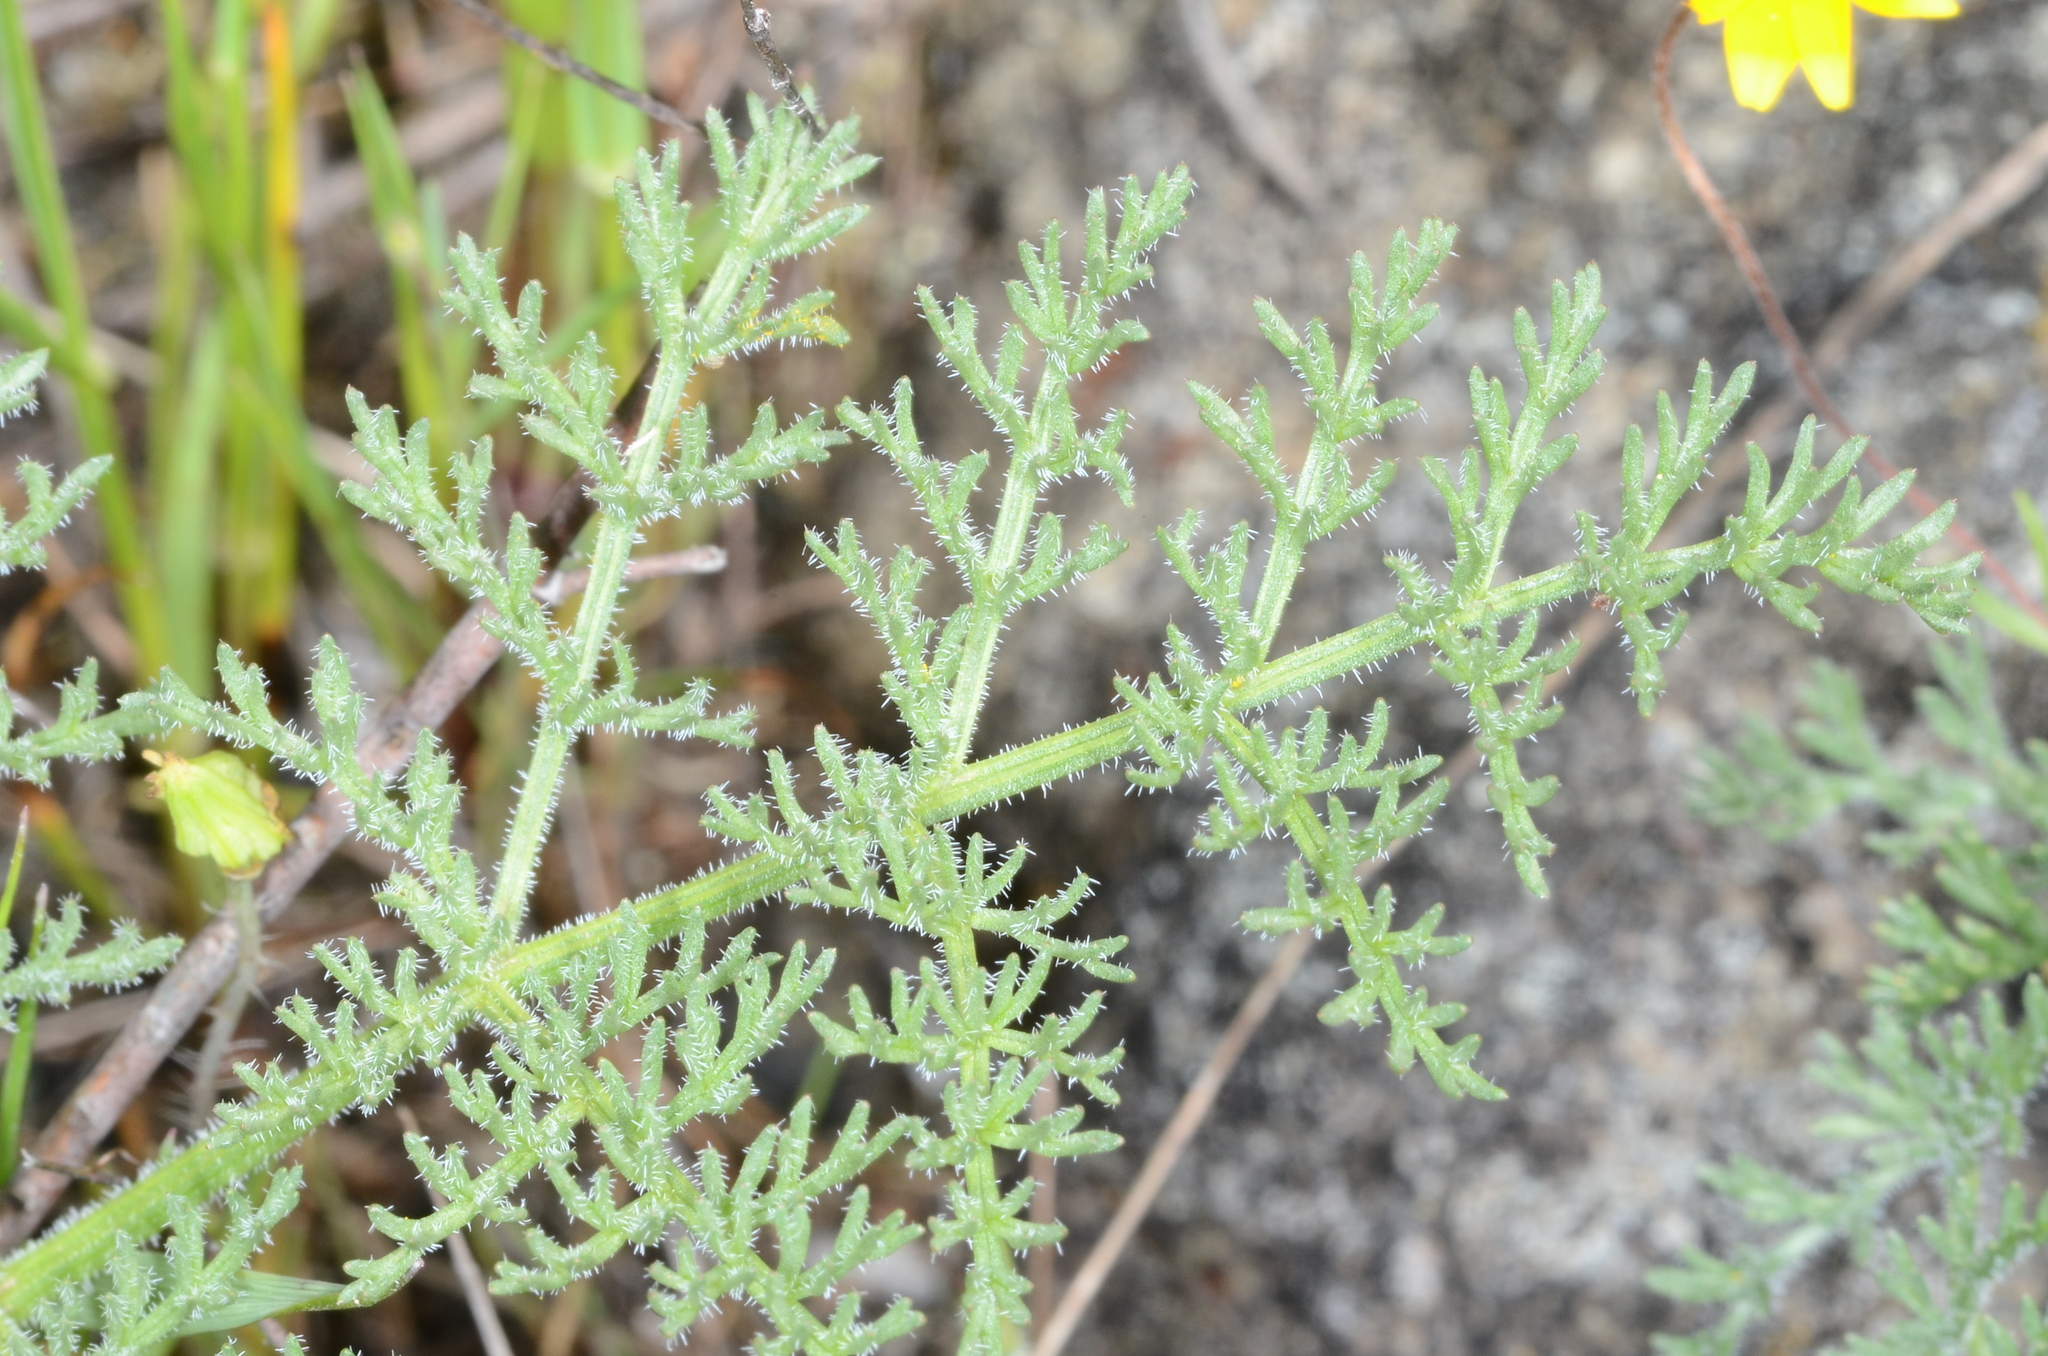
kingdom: Plantae
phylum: Tracheophyta
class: Magnoliopsida
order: Apiales
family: Apiaceae
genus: Lomatium
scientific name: Lomatium dasycarpum
